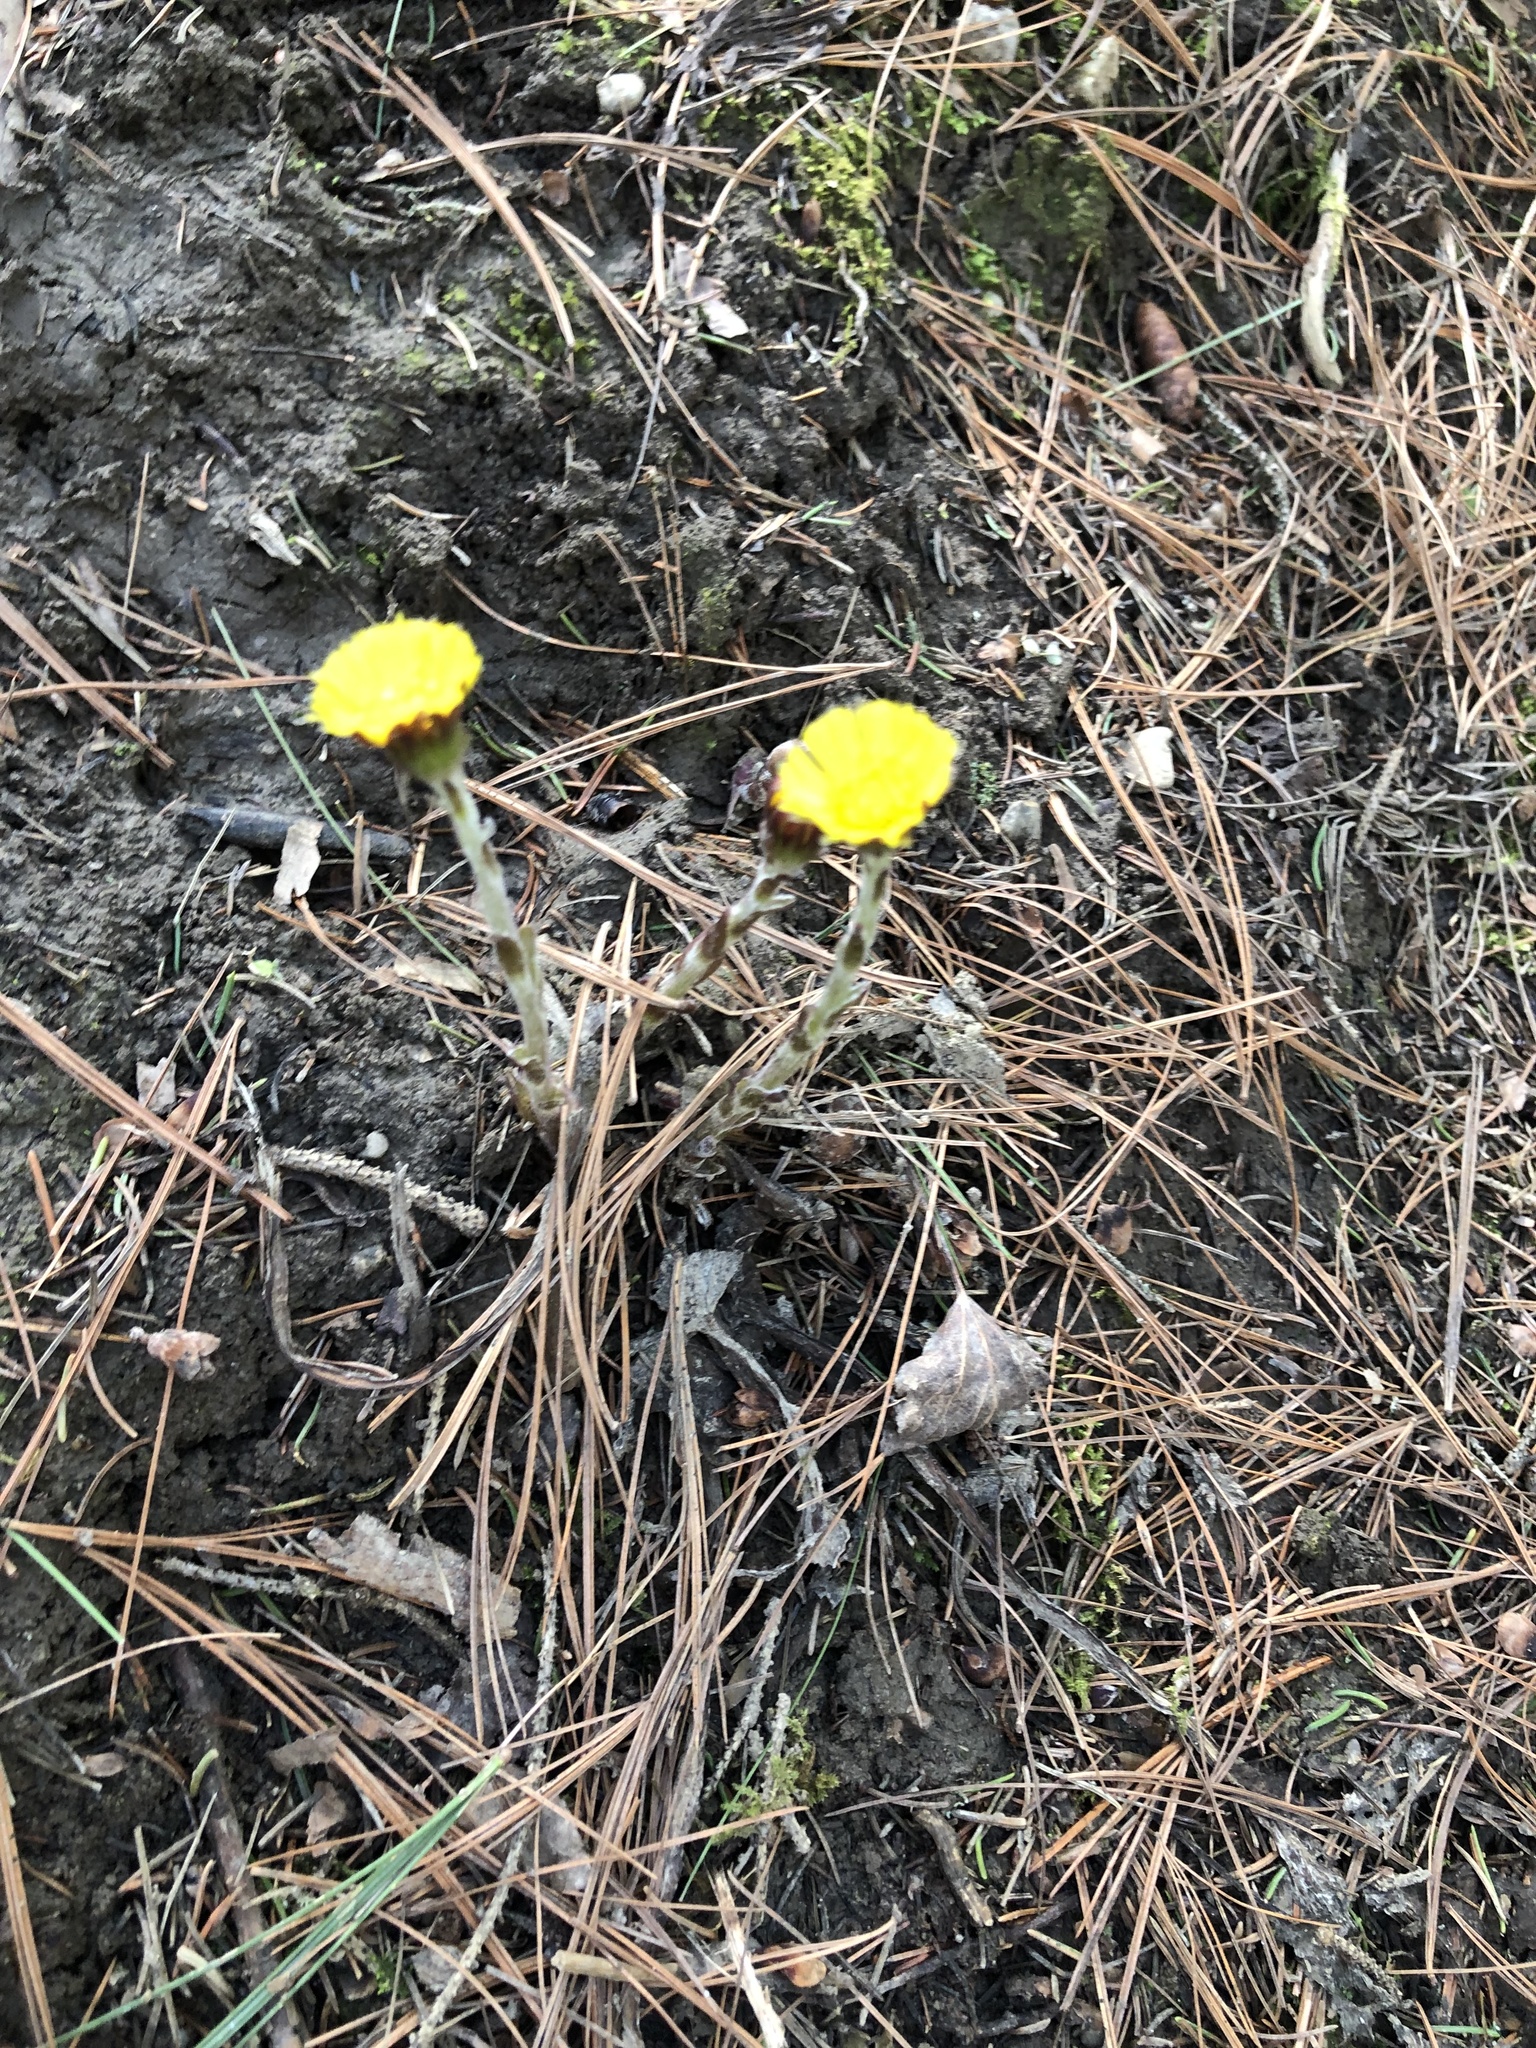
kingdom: Plantae
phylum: Tracheophyta
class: Magnoliopsida
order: Asterales
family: Asteraceae
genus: Tussilago
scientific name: Tussilago farfara
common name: Coltsfoot
